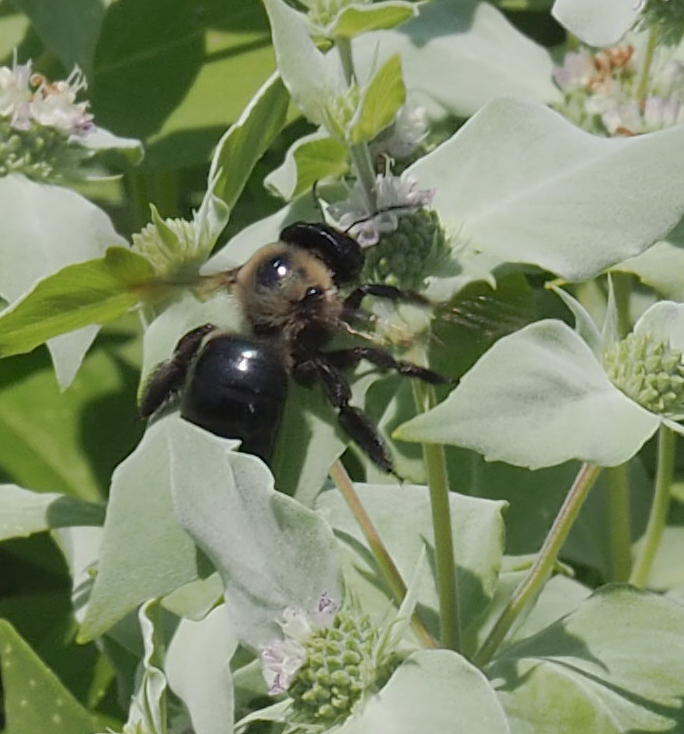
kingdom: Animalia
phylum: Arthropoda
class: Insecta
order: Hymenoptera
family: Apidae
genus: Xylocopa
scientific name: Xylocopa virginica
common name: Carpenter bee
